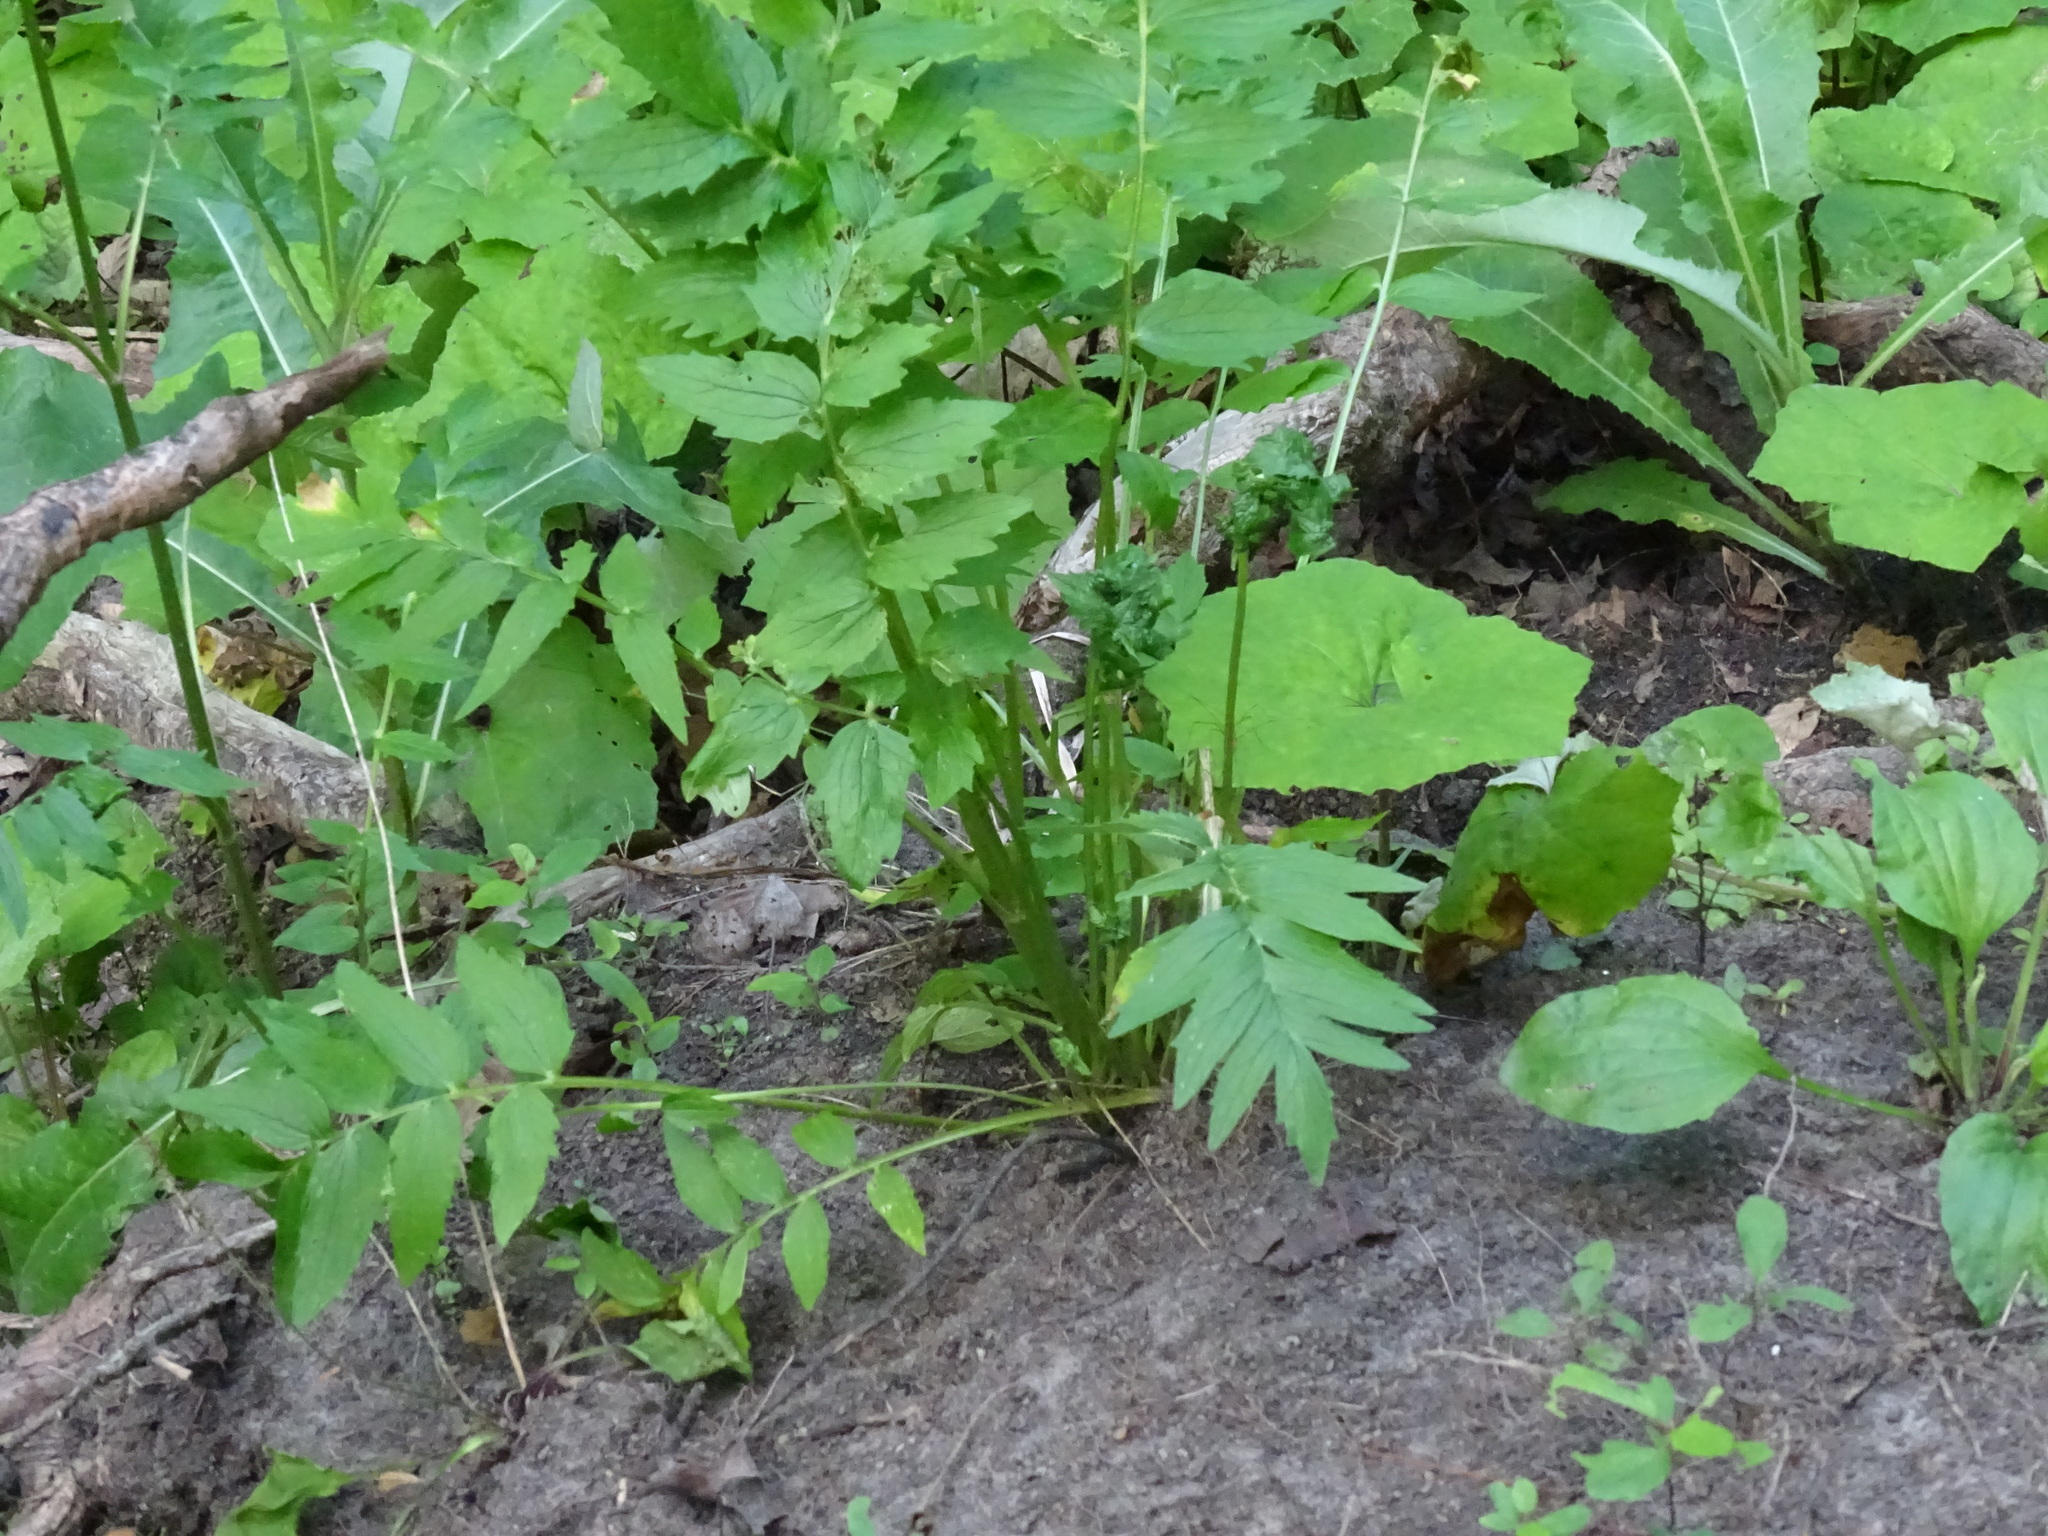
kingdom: Plantae
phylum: Tracheophyta
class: Magnoliopsida
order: Dipsacales
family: Caprifoliaceae
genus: Valeriana
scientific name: Valeriana officinalis
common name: Common valerian
